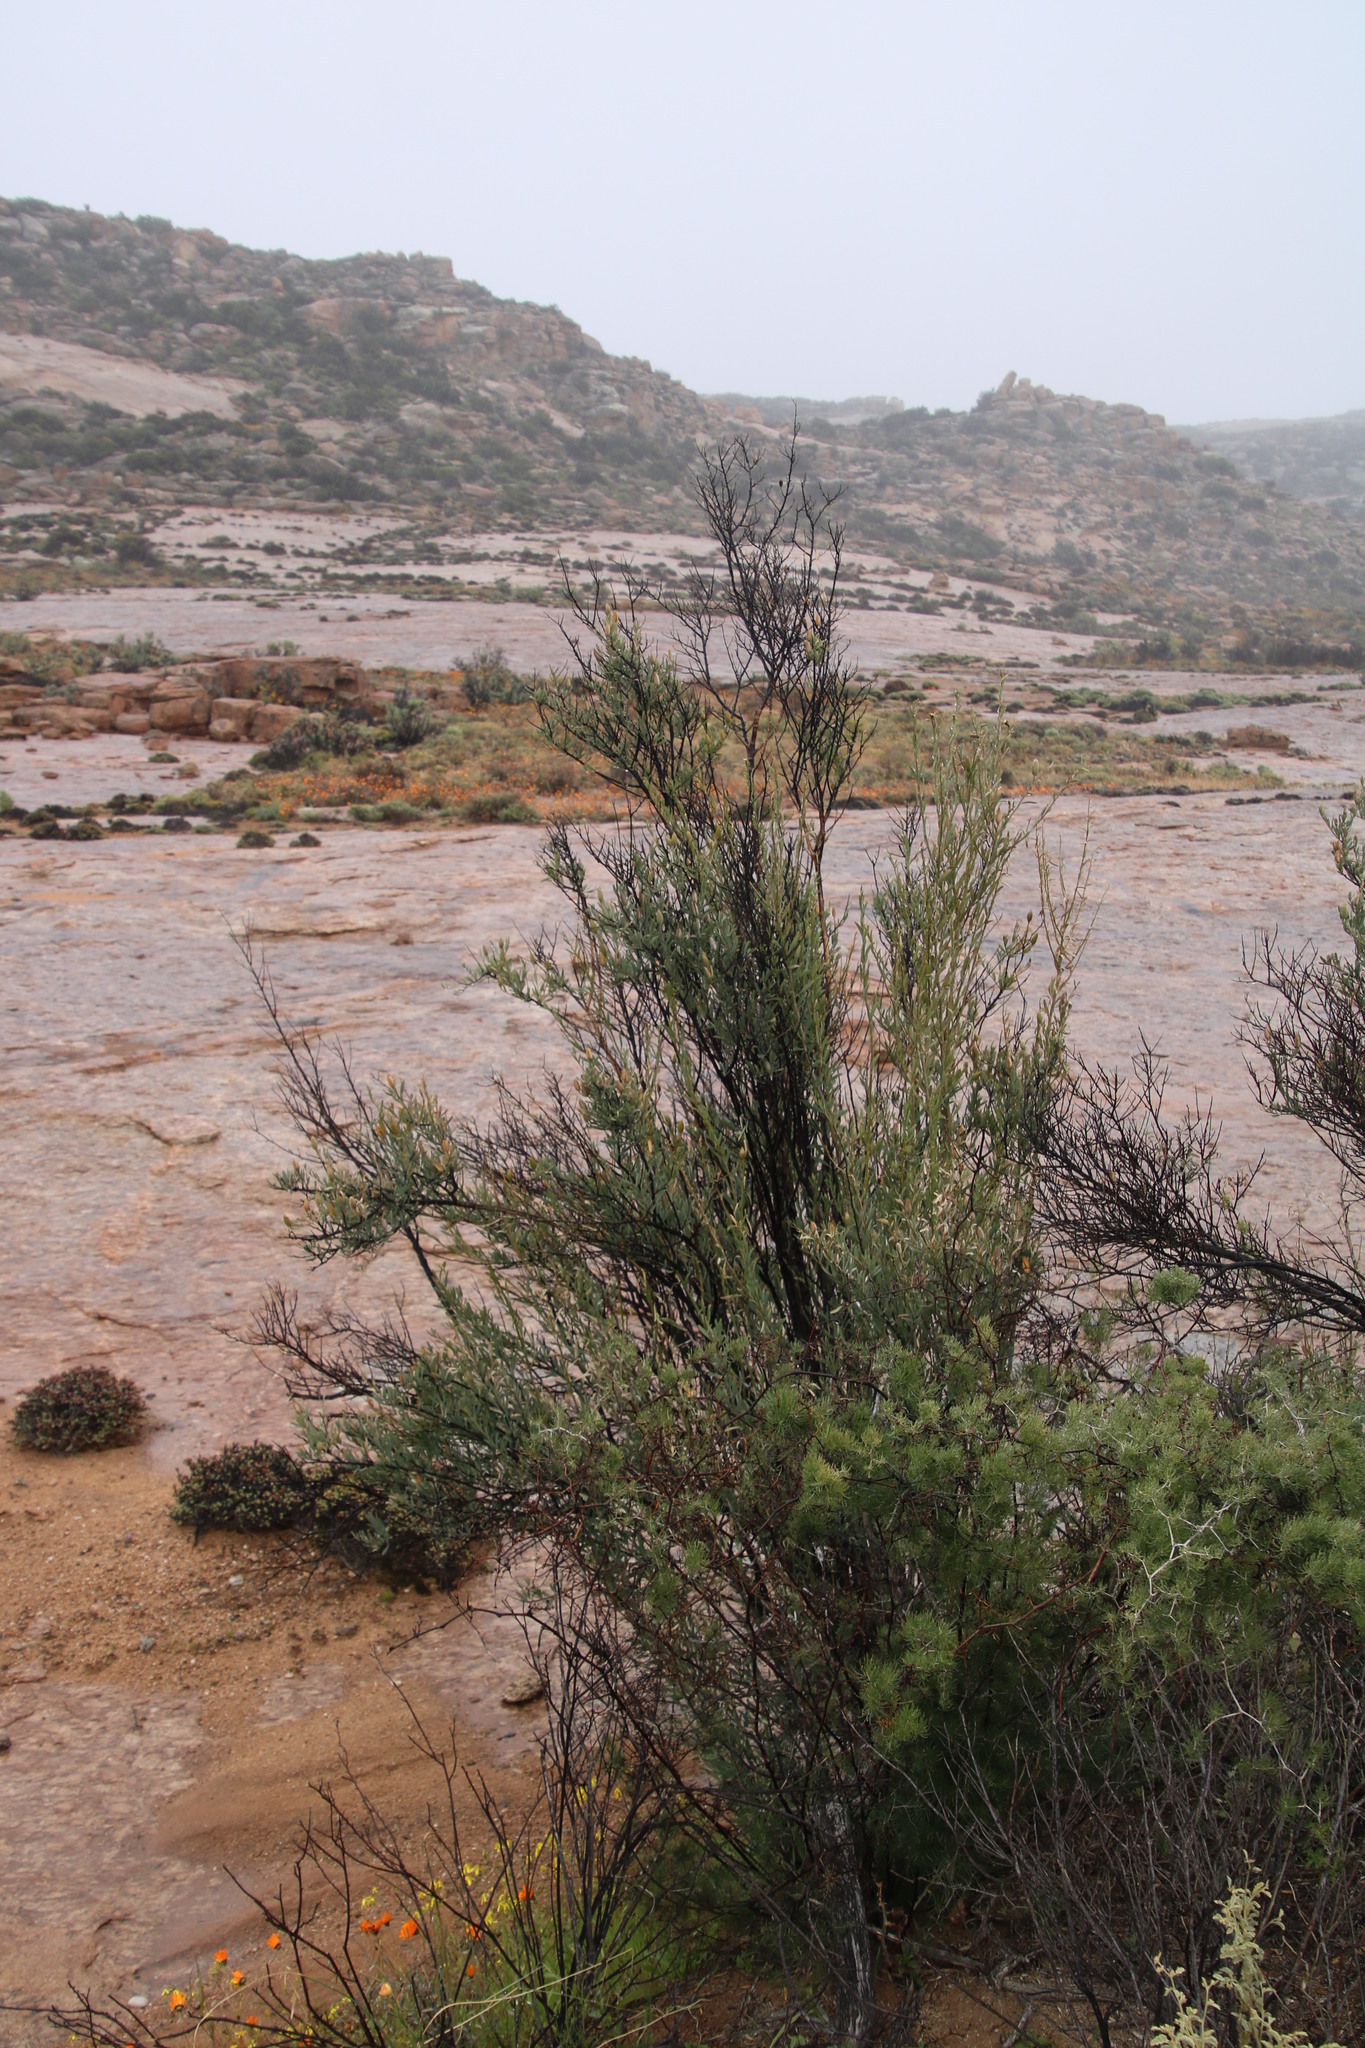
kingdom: Plantae
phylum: Tracheophyta
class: Magnoliopsida
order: Solanales
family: Montiniaceae
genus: Montinia
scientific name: Montinia caryophyllacea
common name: Wild clove-bush
